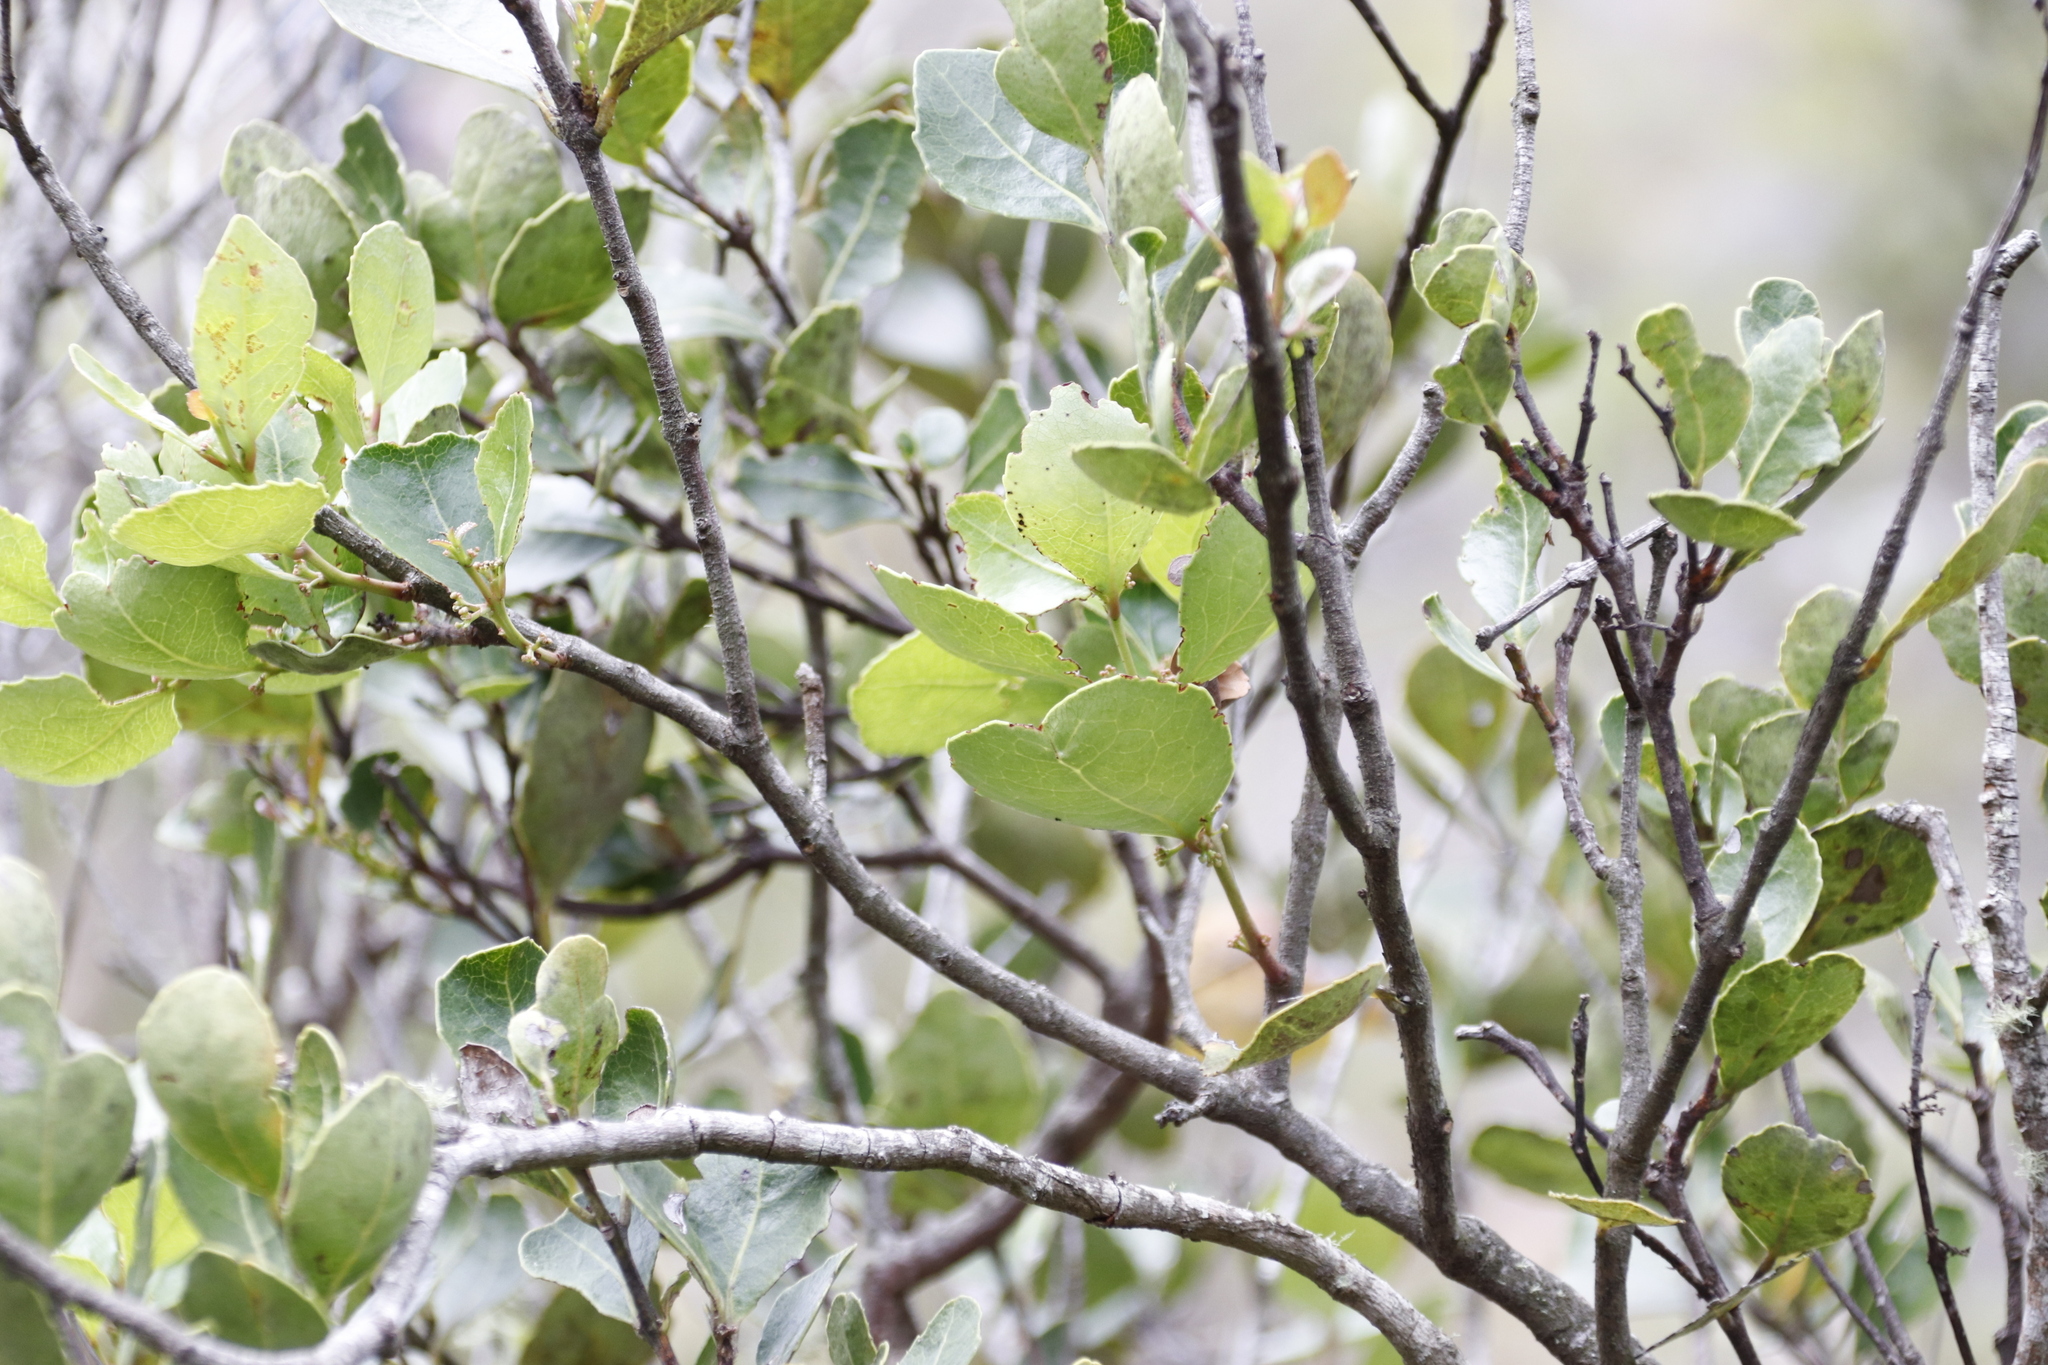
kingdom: Plantae
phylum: Tracheophyta
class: Magnoliopsida
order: Celastrales
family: Celastraceae
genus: Cassine
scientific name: Cassine peragua
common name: Cape saffron
